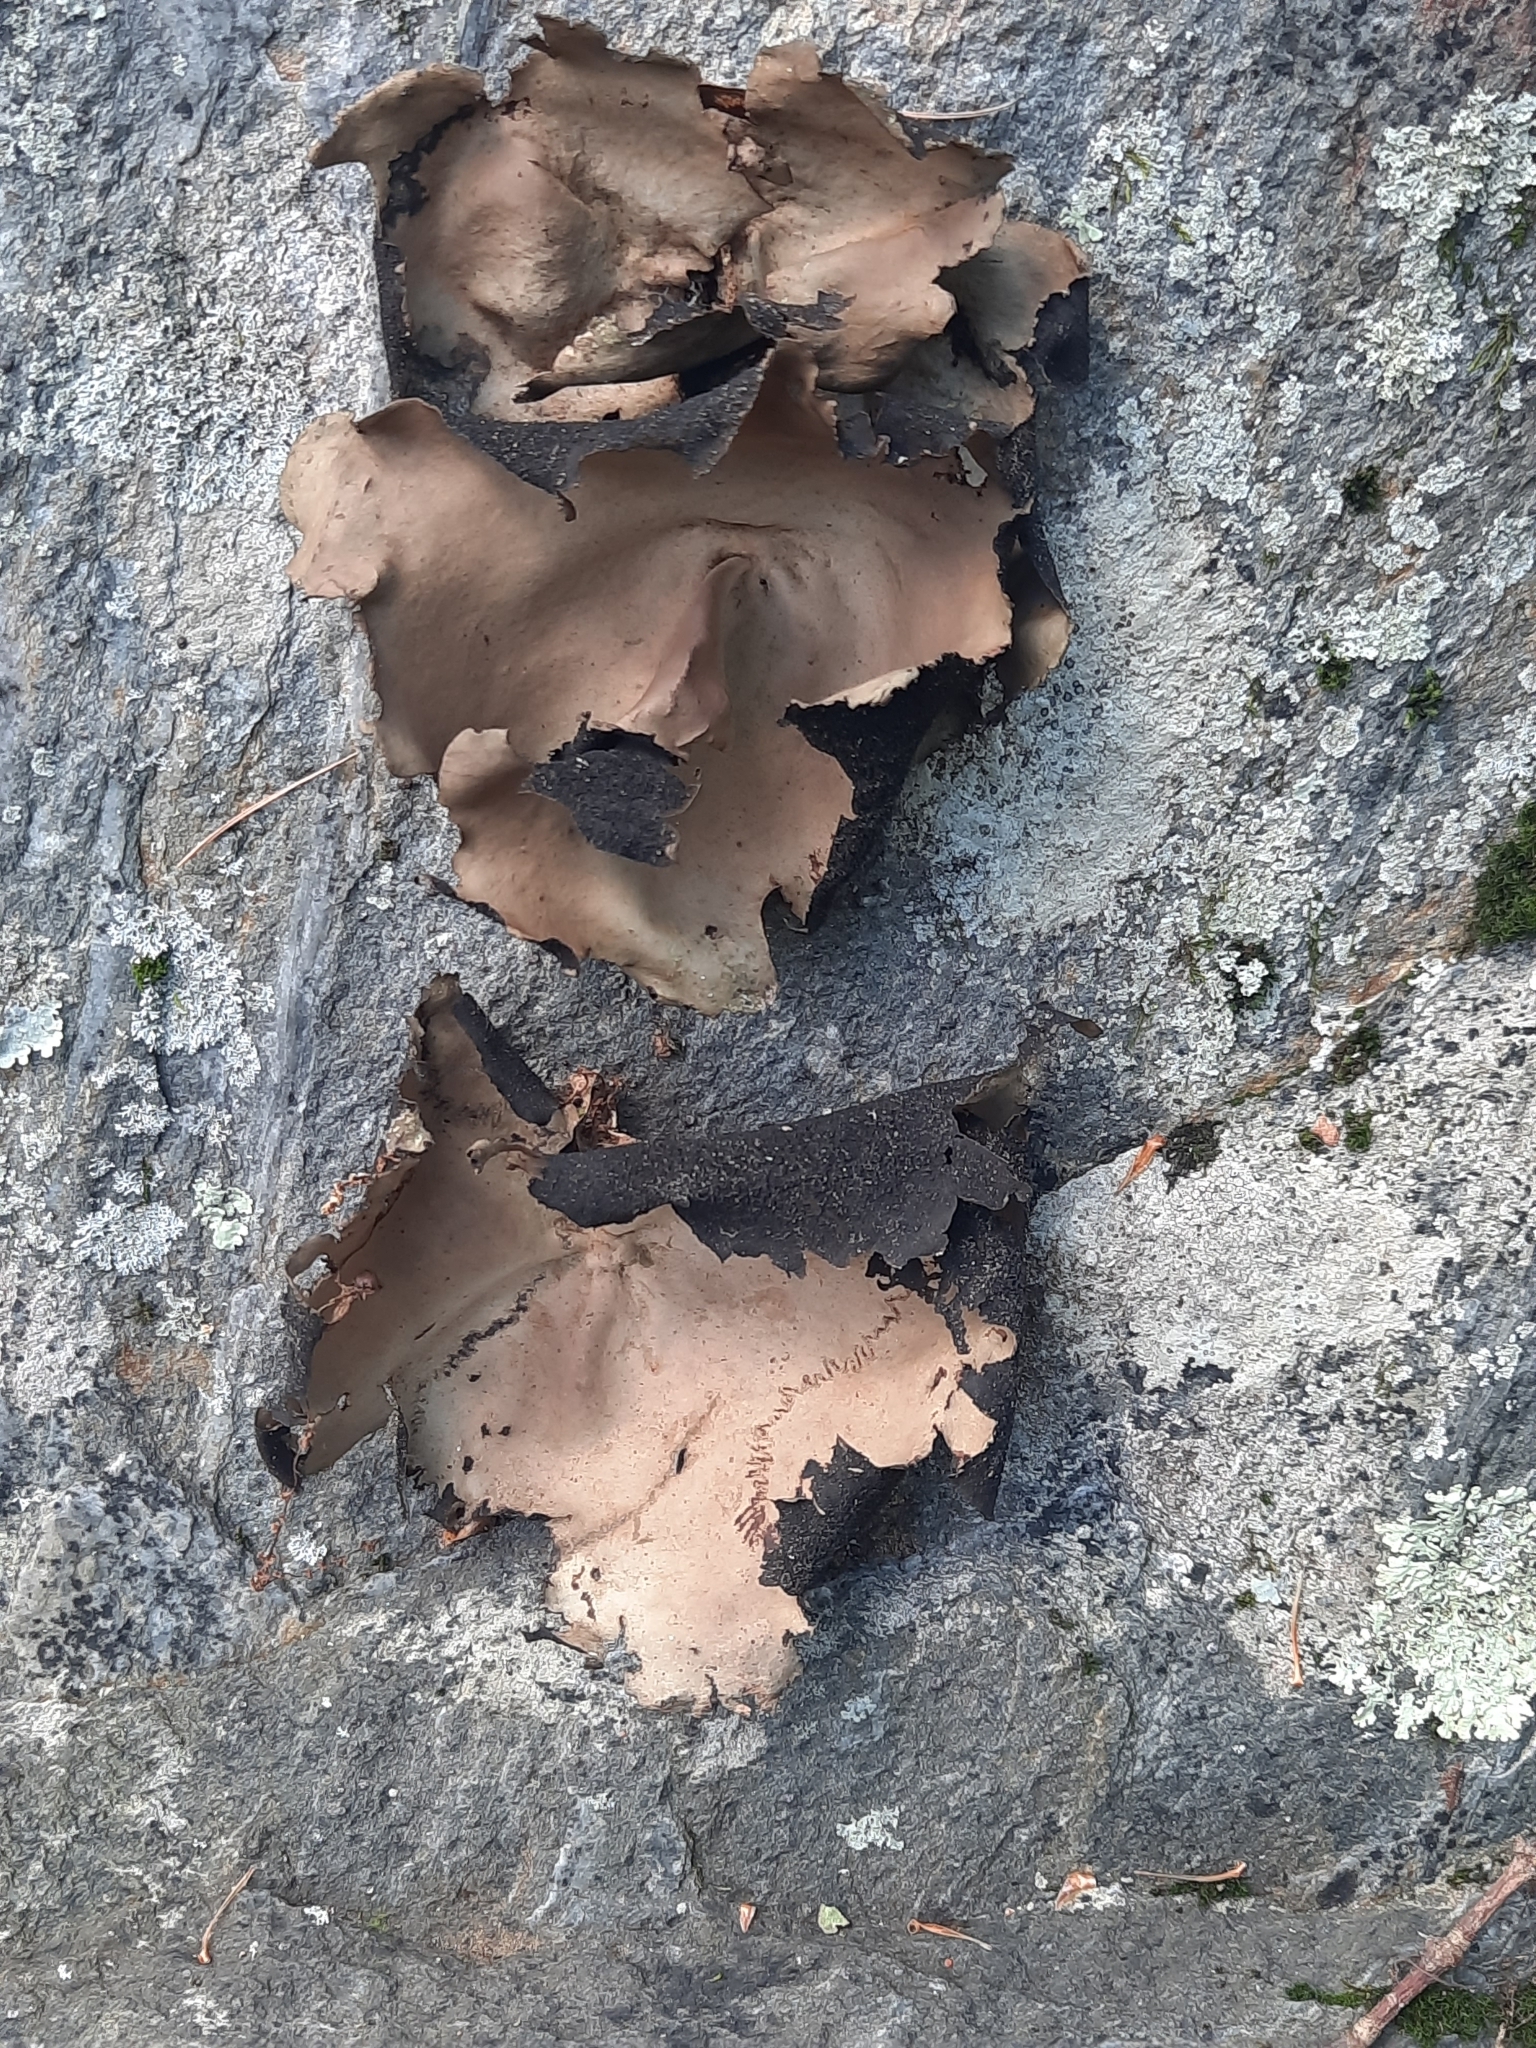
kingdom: Fungi
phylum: Ascomycota
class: Lecanoromycetes
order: Umbilicariales
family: Umbilicariaceae
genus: Umbilicaria
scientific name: Umbilicaria mammulata
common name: Smooth rock tripe
